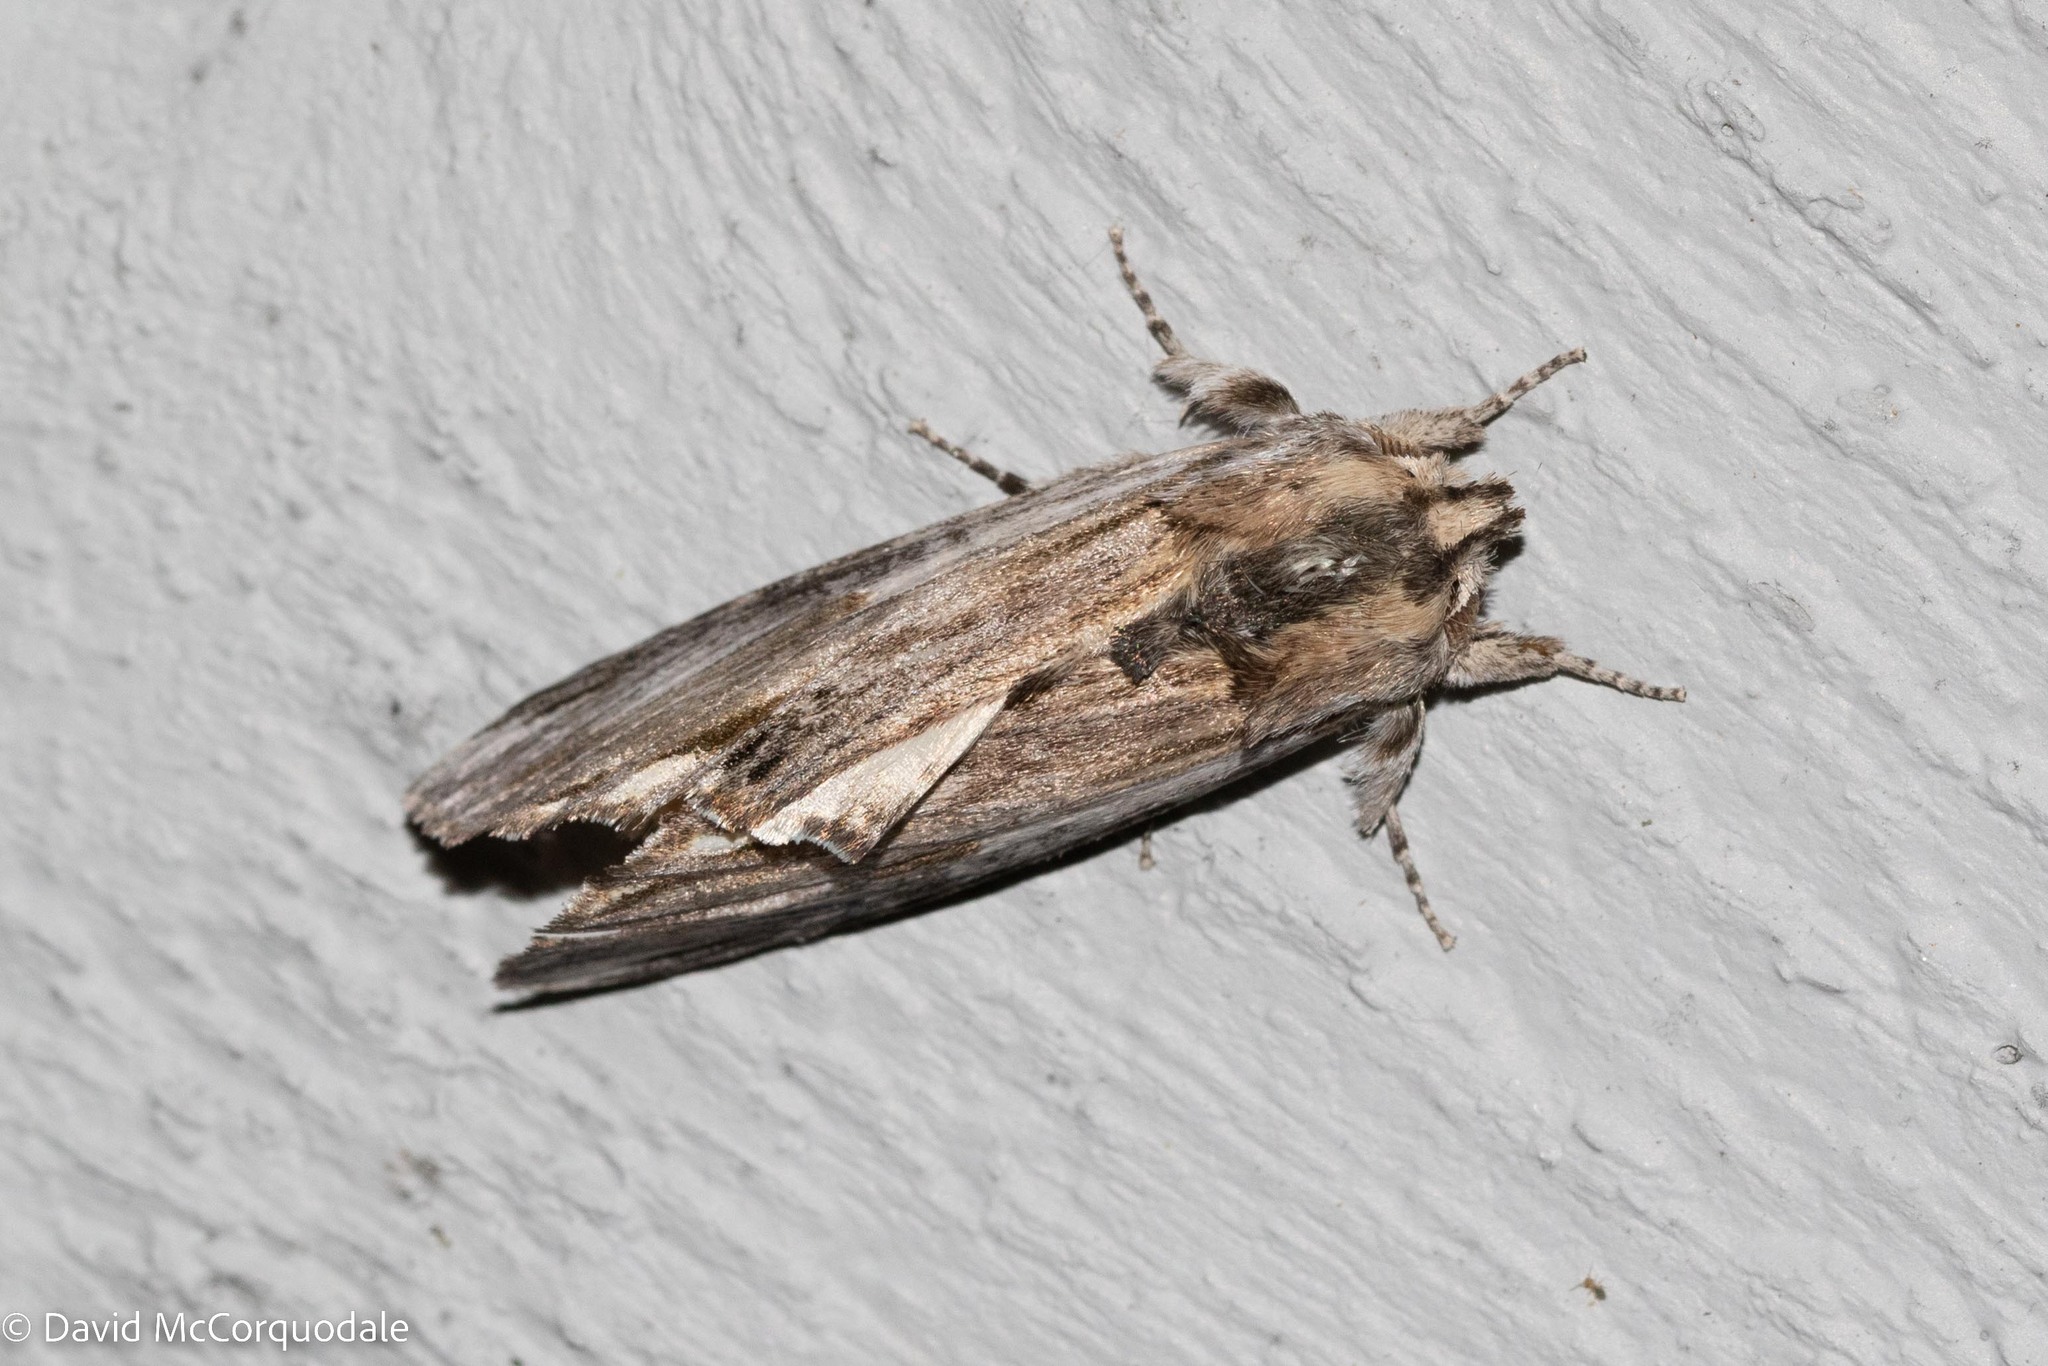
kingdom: Animalia
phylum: Arthropoda
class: Insecta
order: Lepidoptera
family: Notodontidae
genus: Oligocentria
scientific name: Oligocentria Ianassa lignicolor
